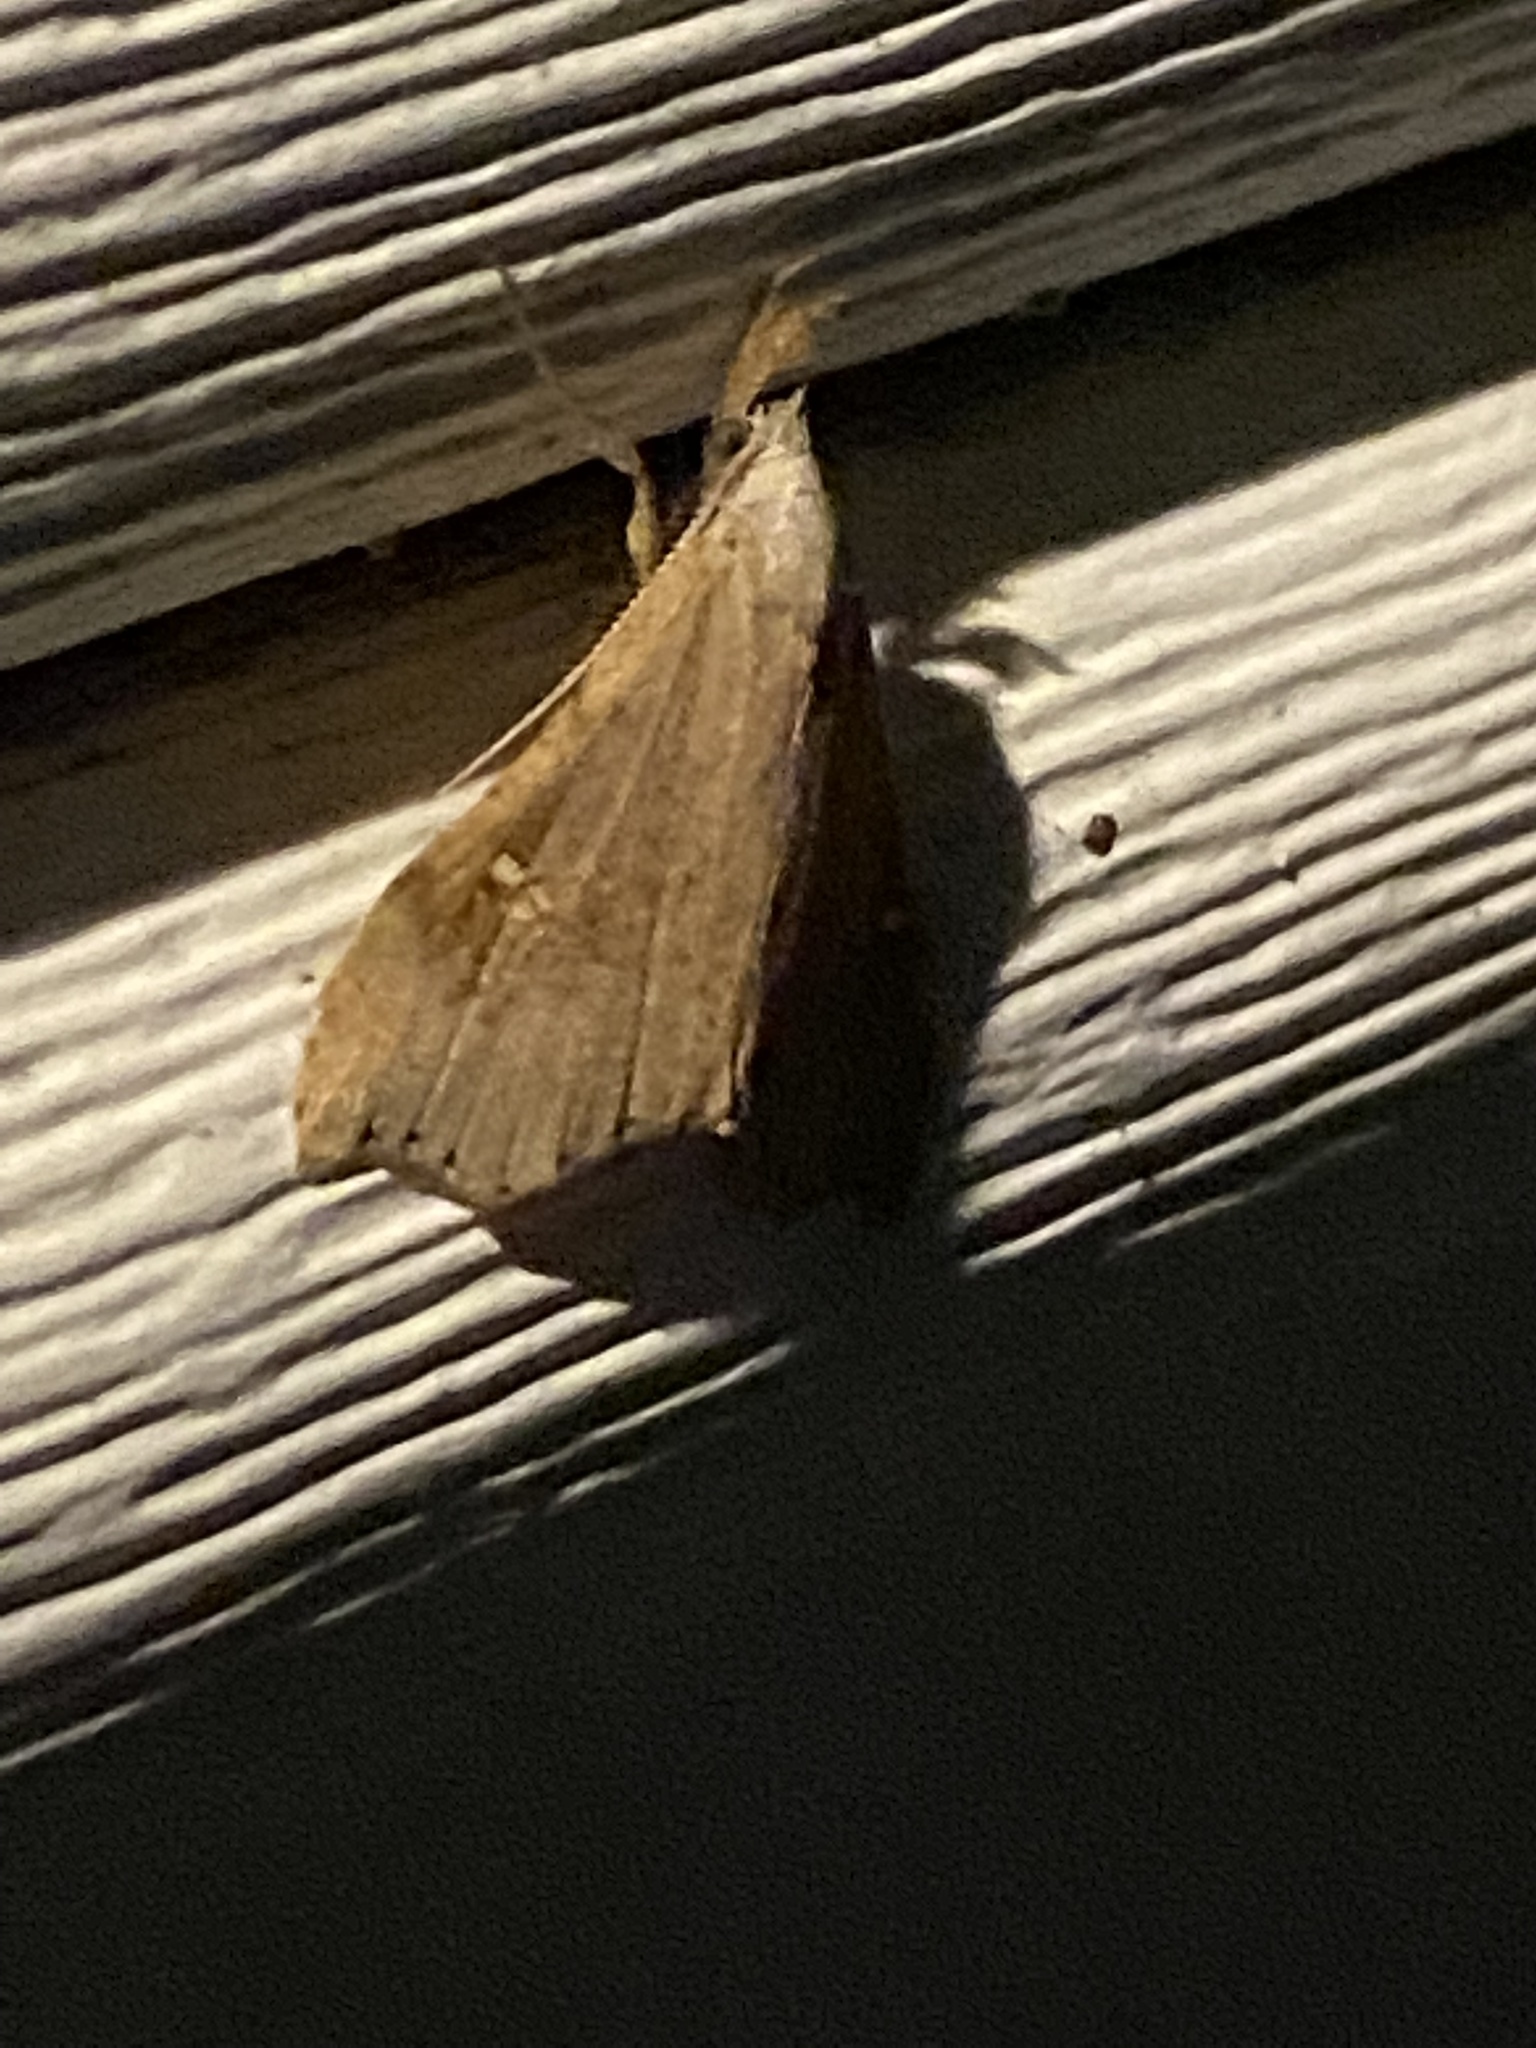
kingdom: Animalia
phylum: Arthropoda
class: Insecta
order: Lepidoptera
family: Erebidae
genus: Redectis
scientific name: Redectis vitrea
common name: White-spotted redectis
